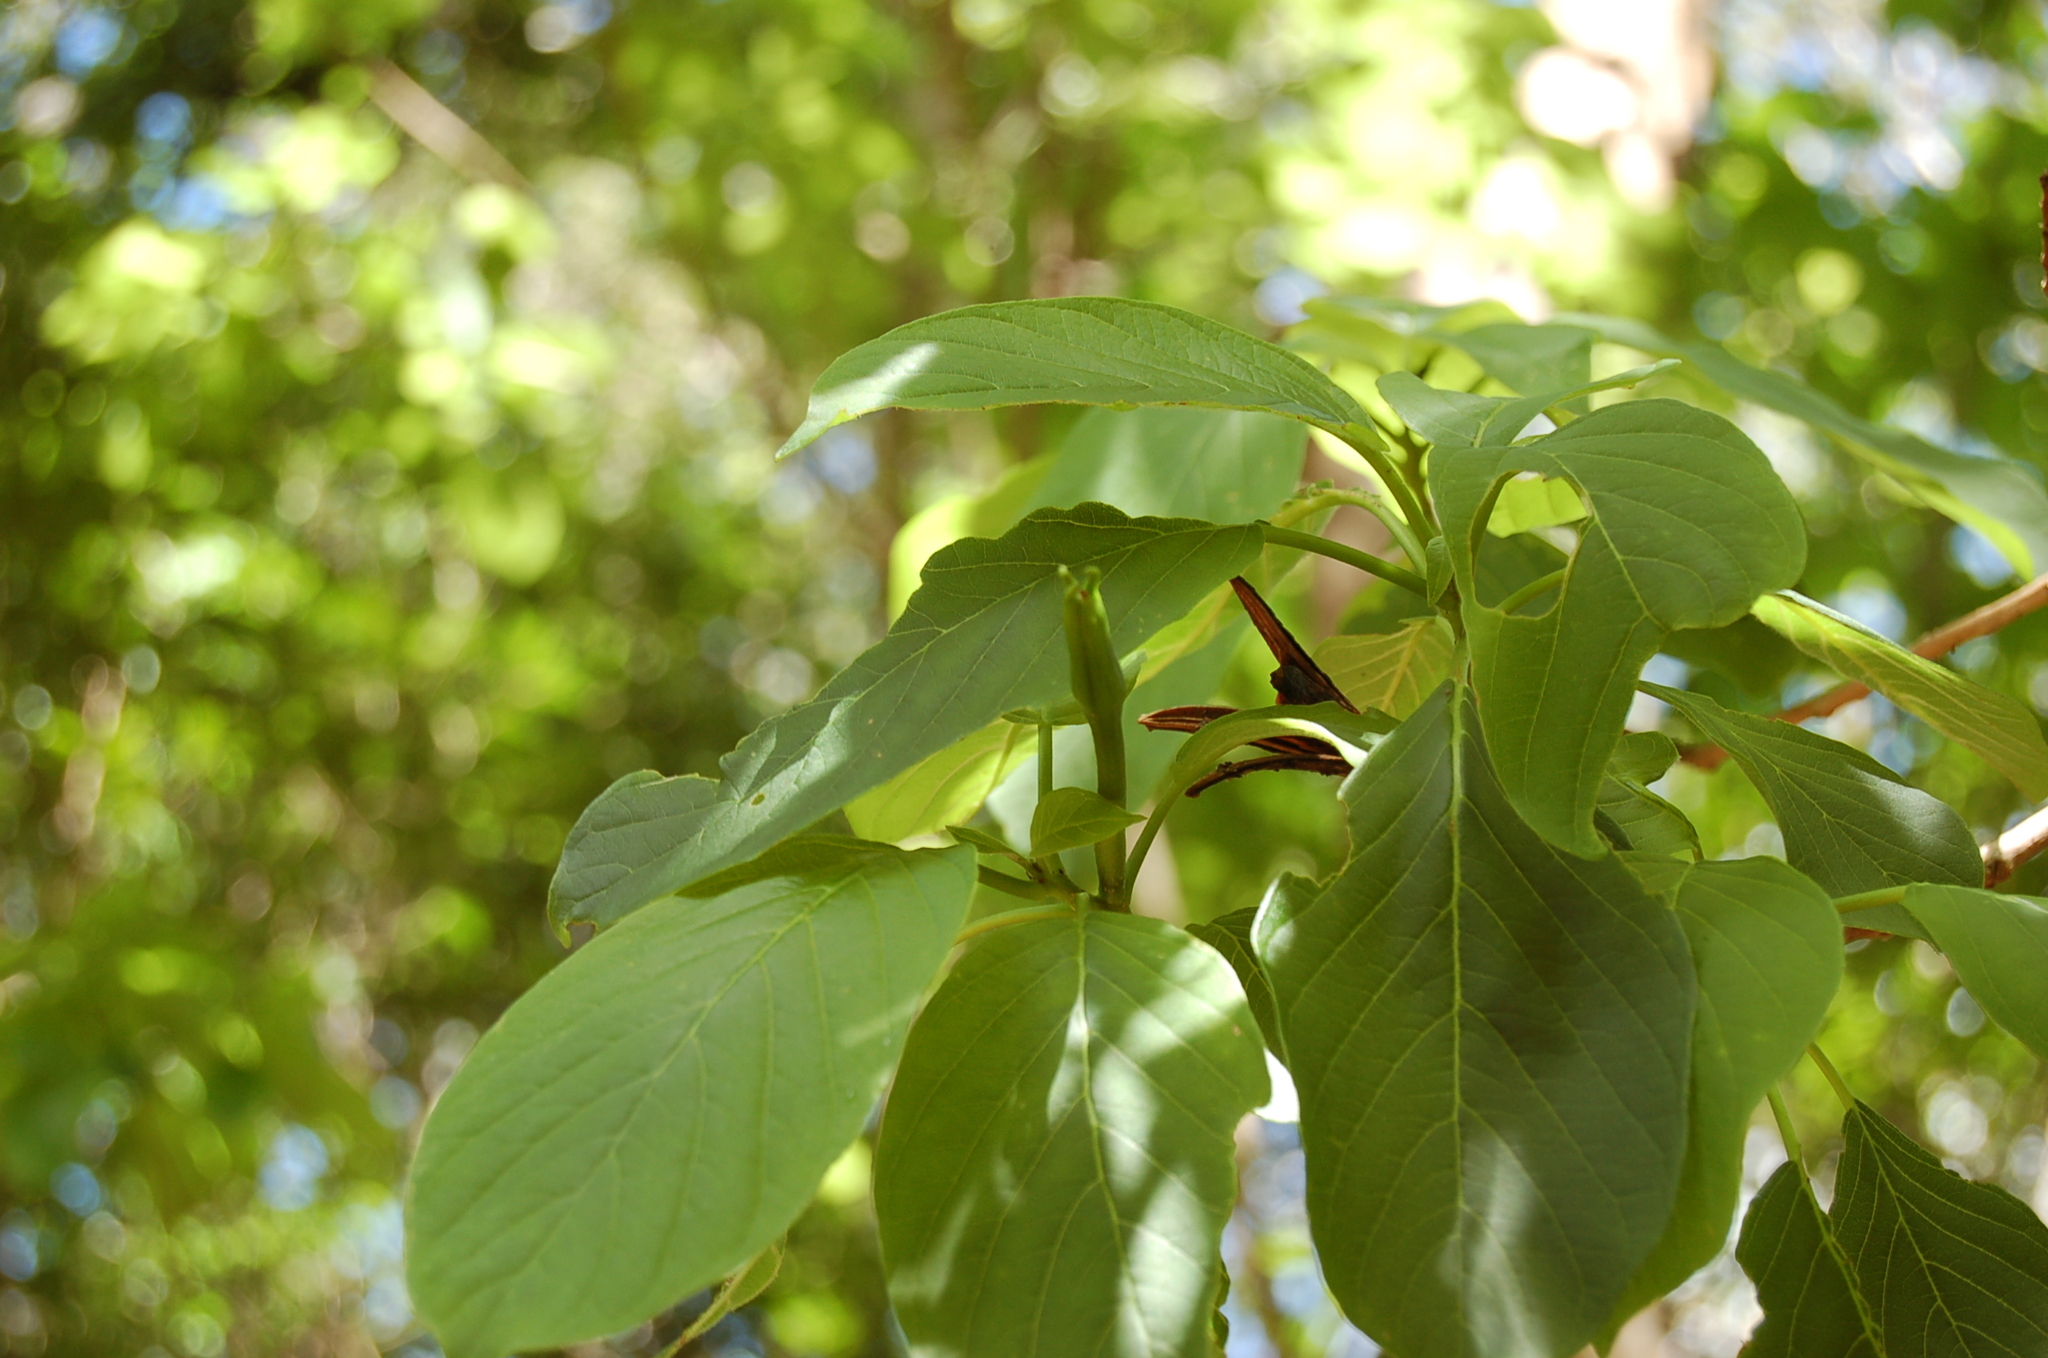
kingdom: Plantae
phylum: Tracheophyta
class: Magnoliopsida
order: Myrtales
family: Onagraceae
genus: Hauya
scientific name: Hauya elegans
